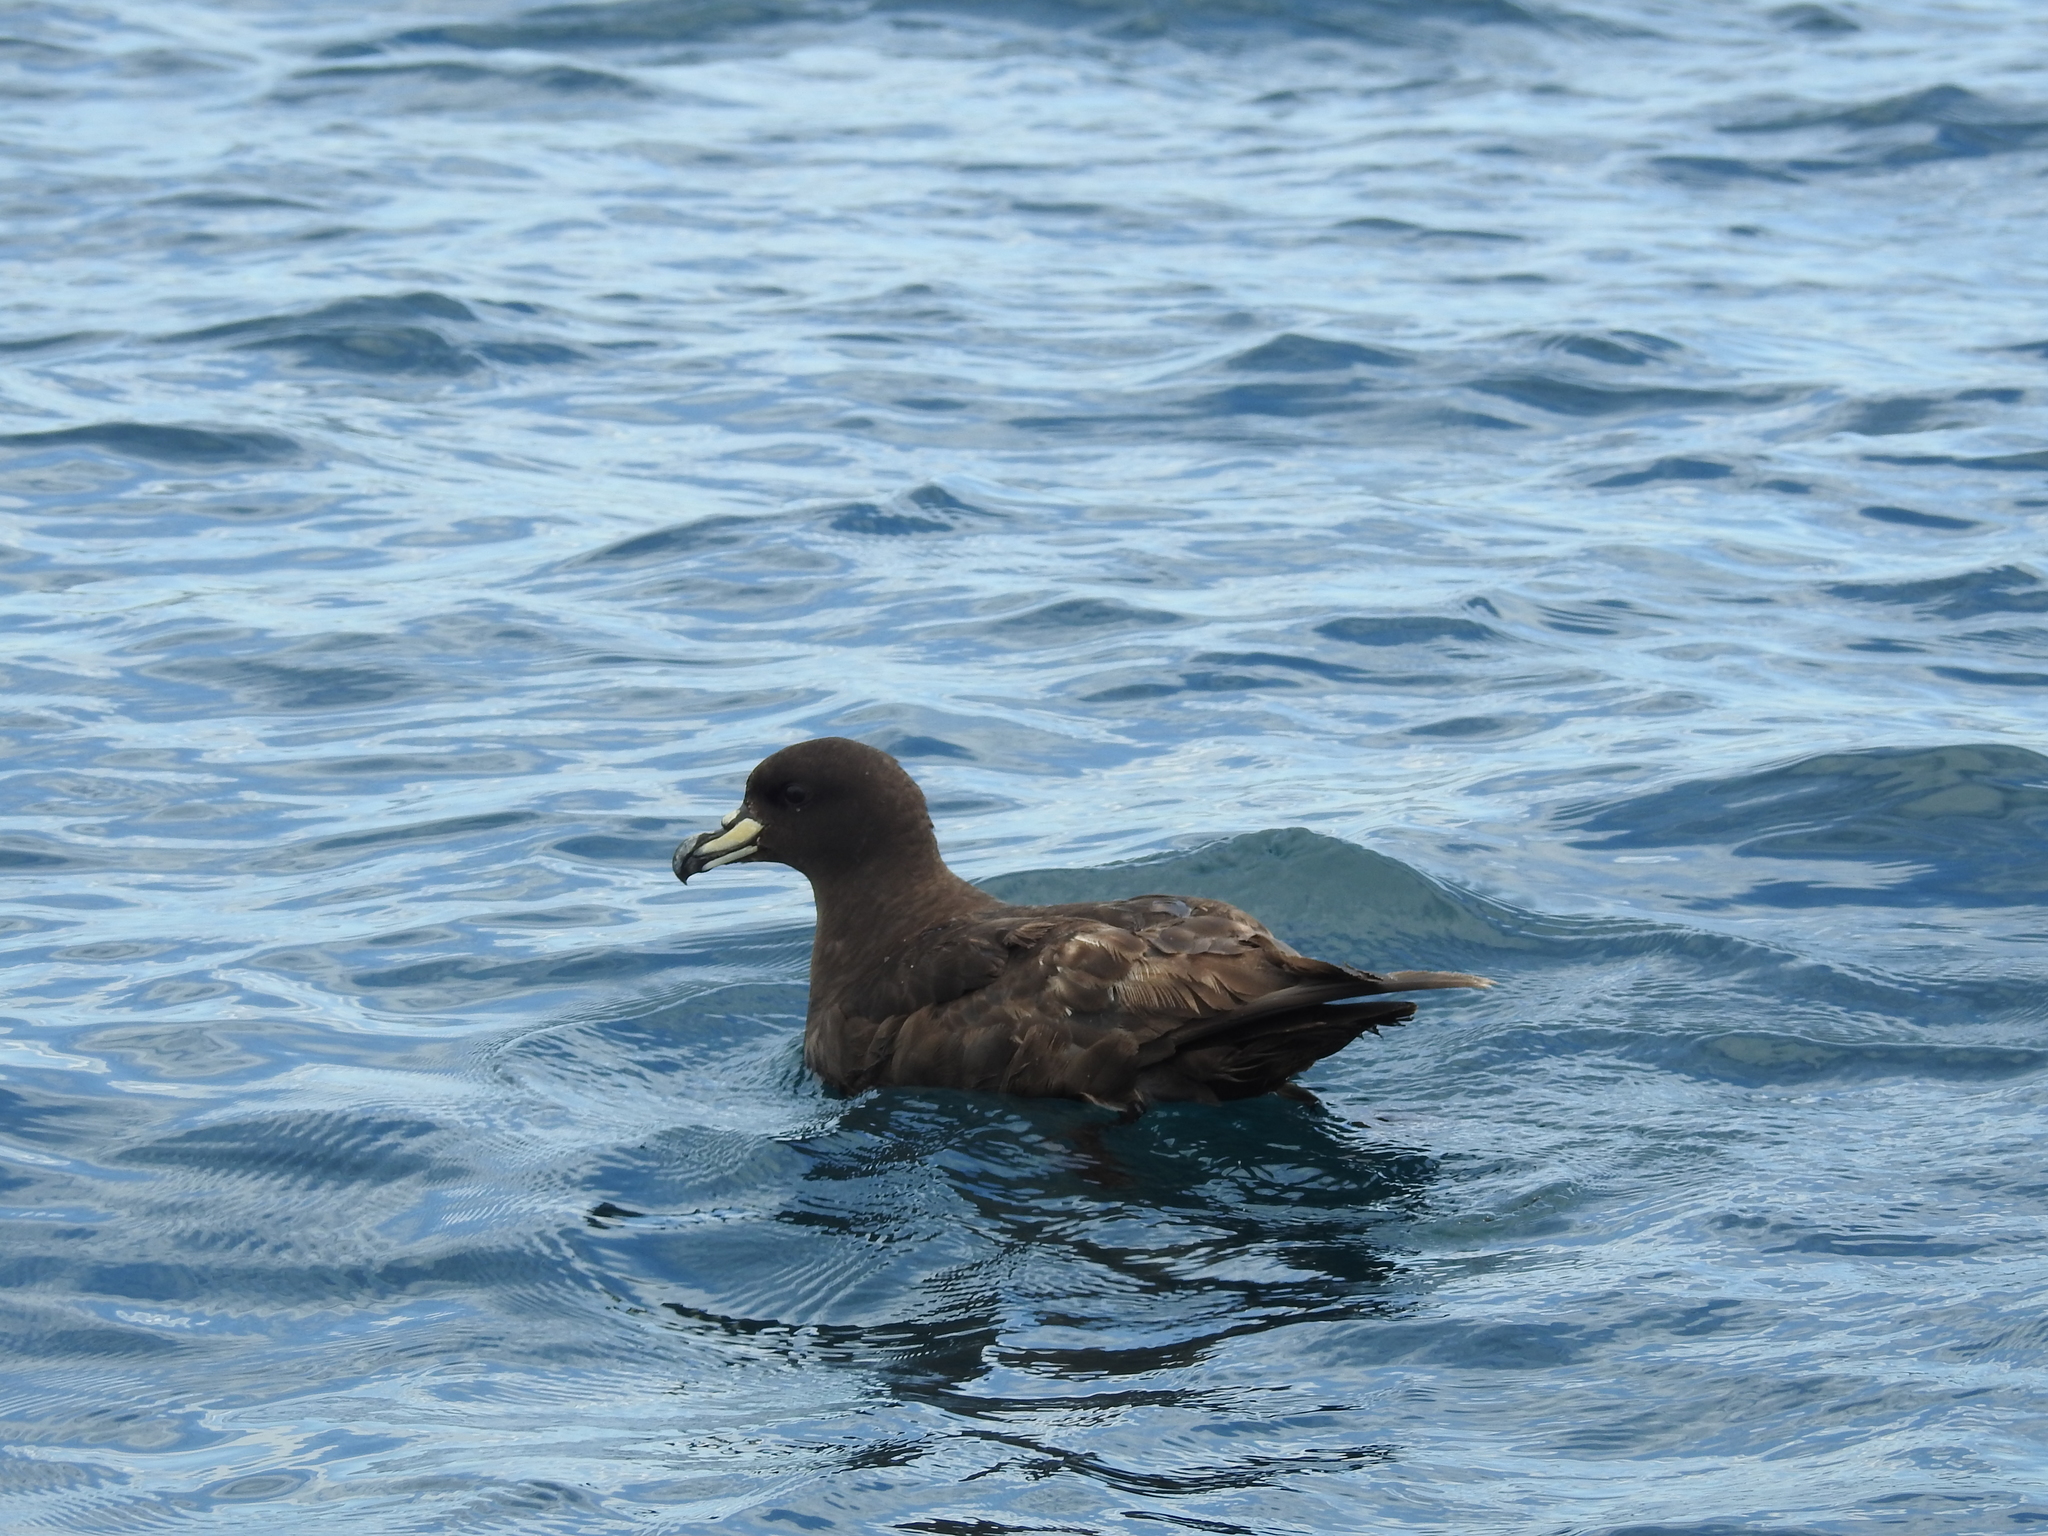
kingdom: Animalia
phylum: Chordata
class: Aves
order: Procellariiformes
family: Procellariidae
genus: Procellaria
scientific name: Procellaria westlandica
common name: Westland petrel
